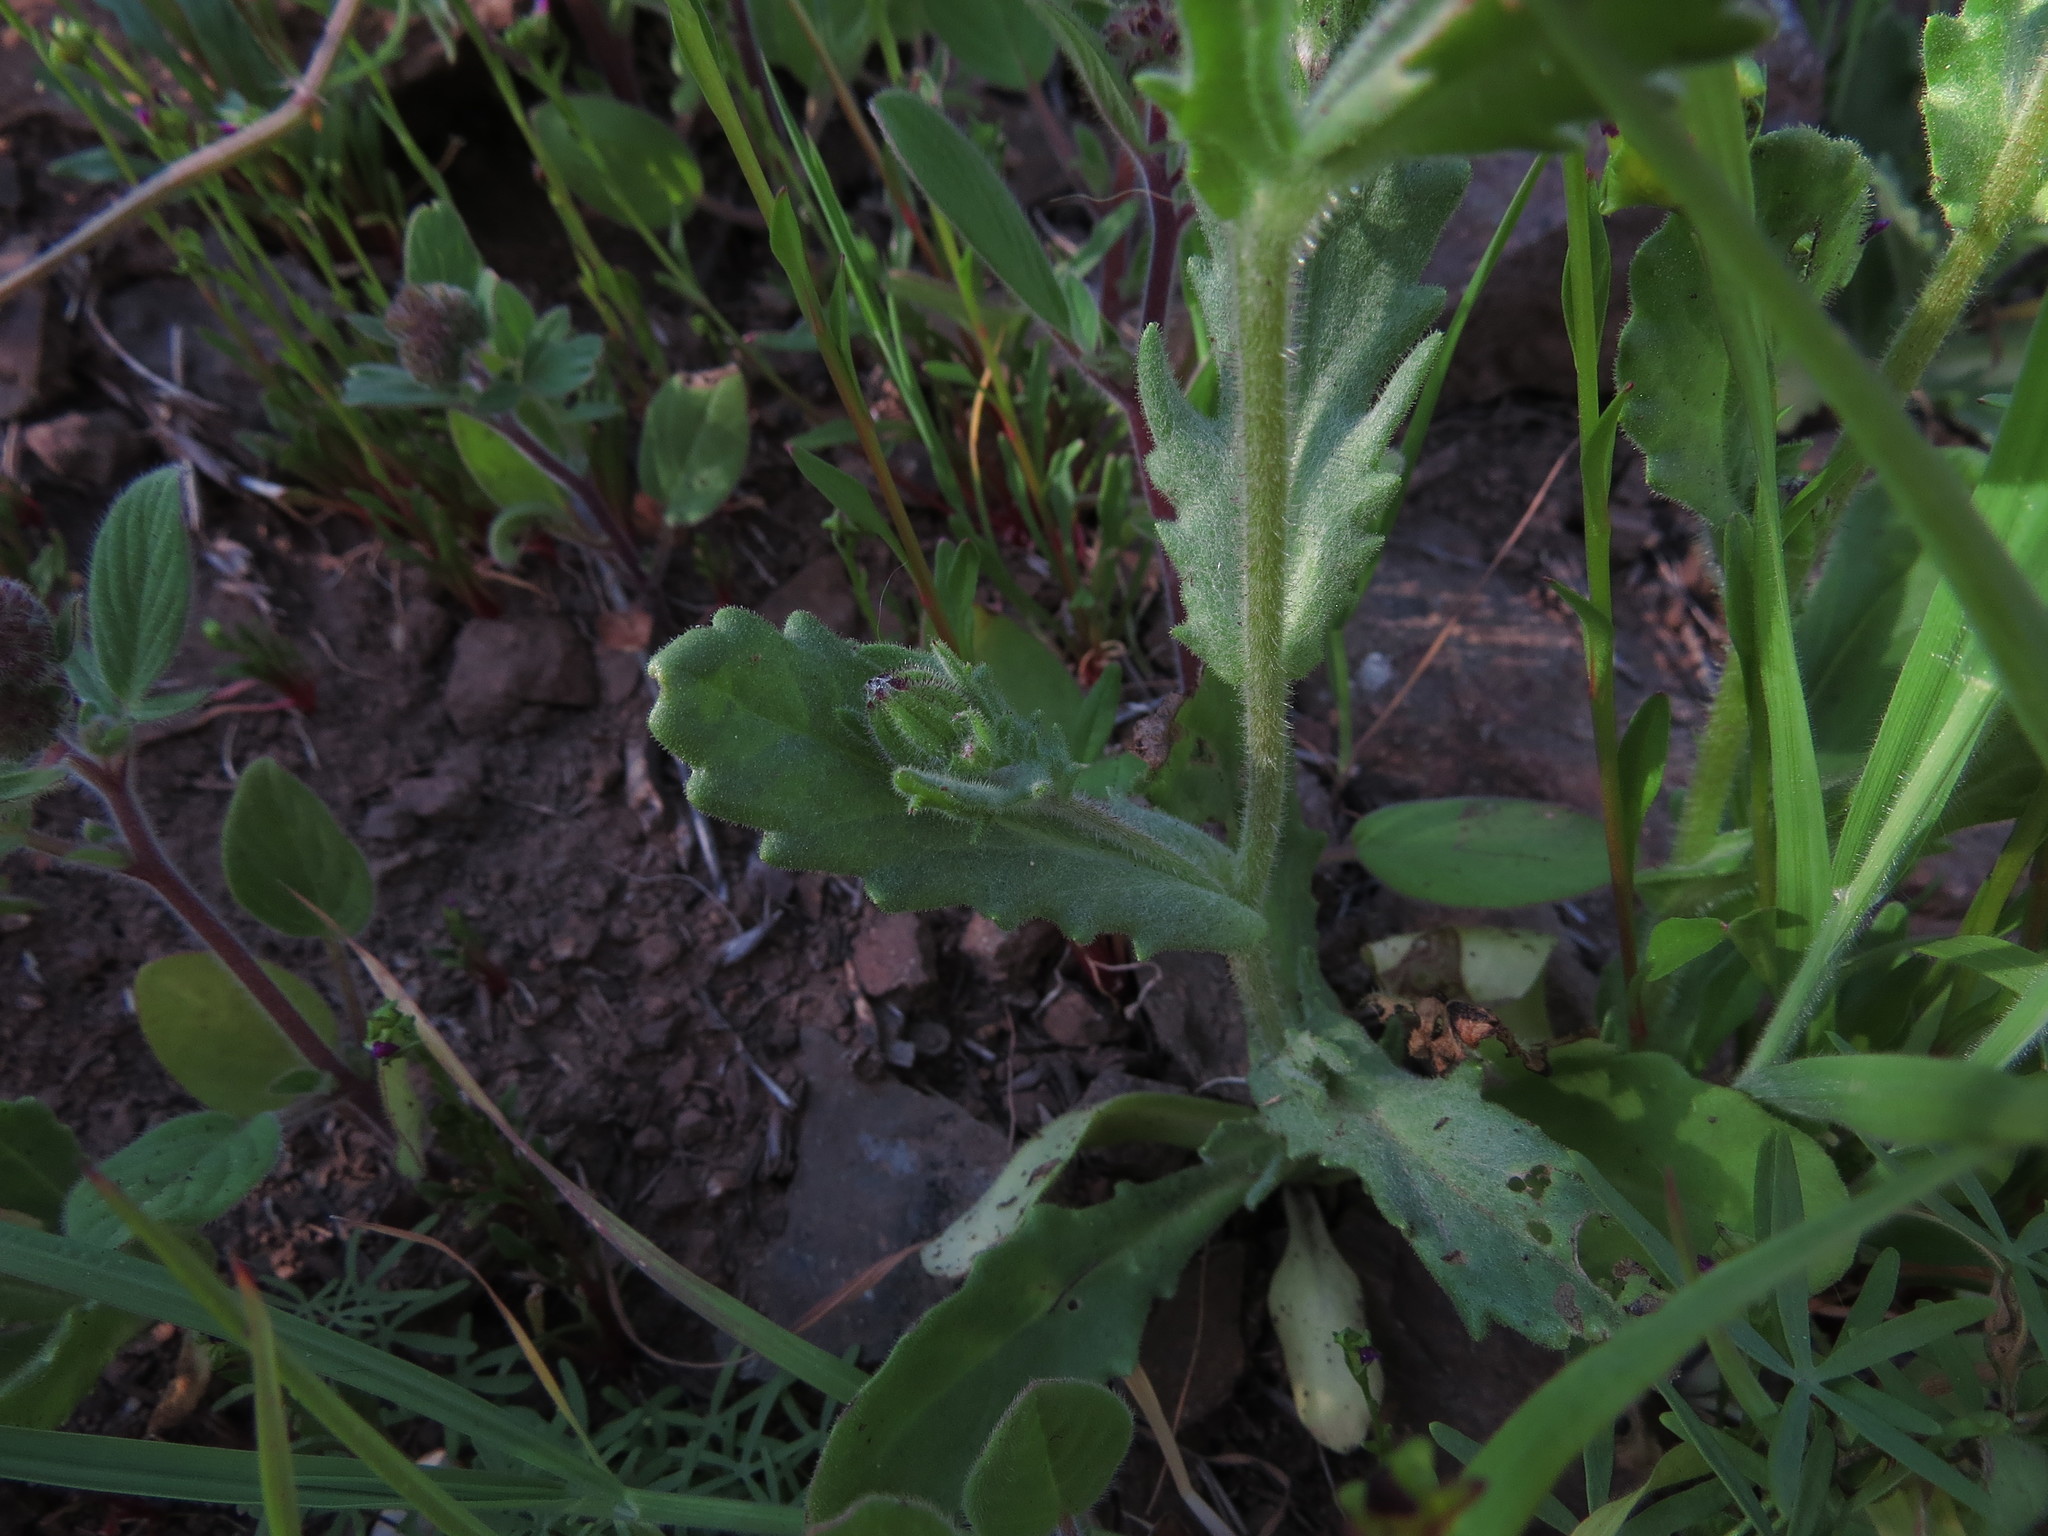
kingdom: Plantae
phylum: Tracheophyta
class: Magnoliopsida
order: Asterales
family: Asteraceae
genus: Leucheria
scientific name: Leucheria glandulosa
